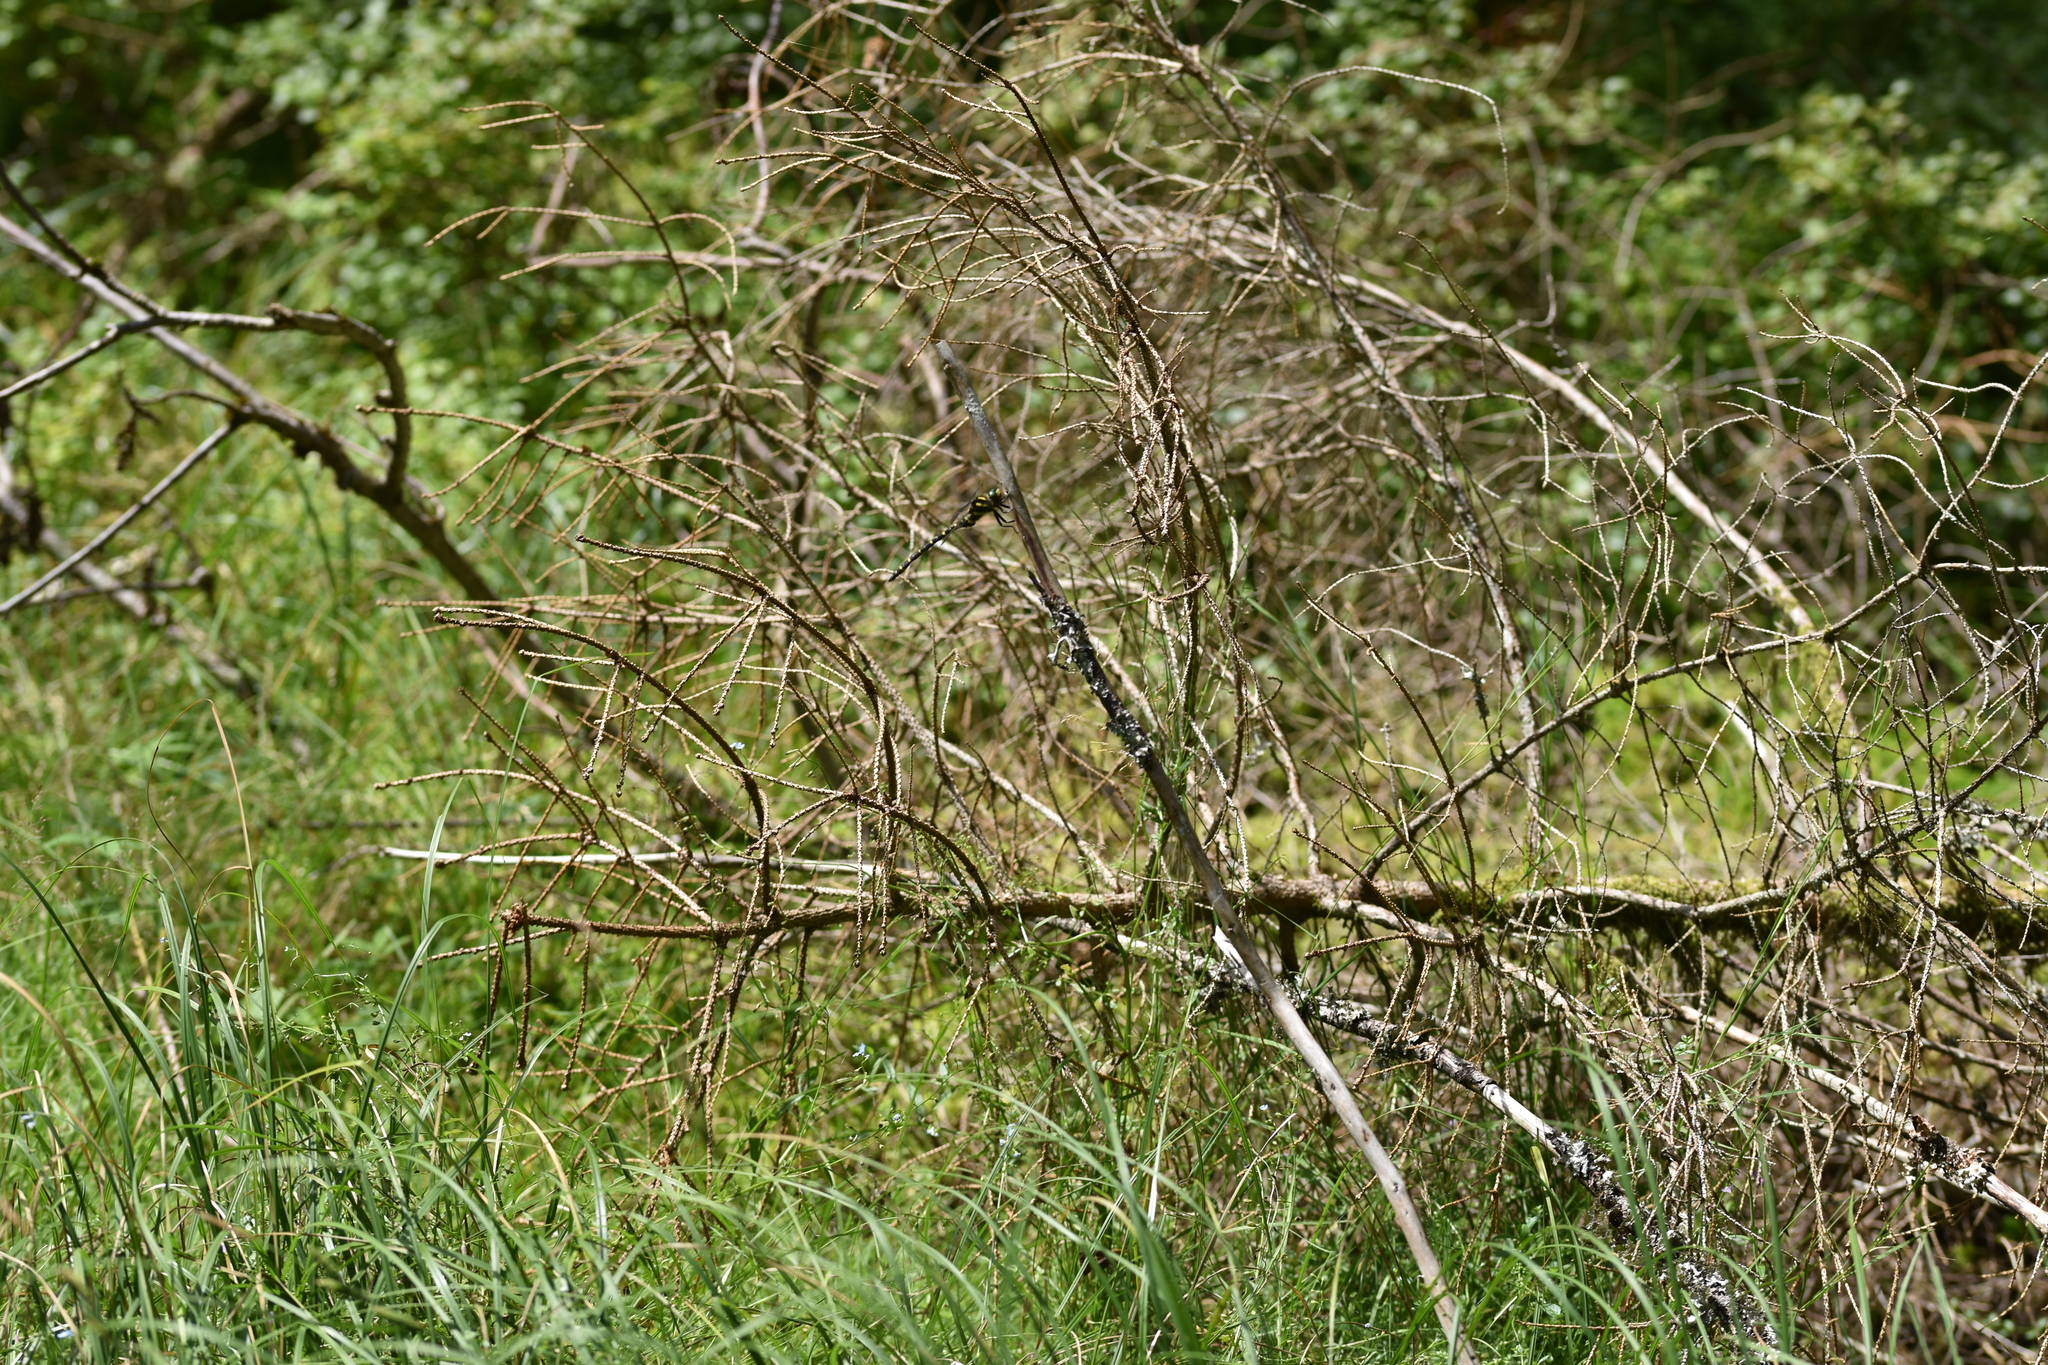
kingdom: Animalia
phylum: Arthropoda
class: Insecta
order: Odonata
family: Cordulegastridae
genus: Cordulegaster
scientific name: Cordulegaster boltonii
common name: Golden-ringed dragonfly
